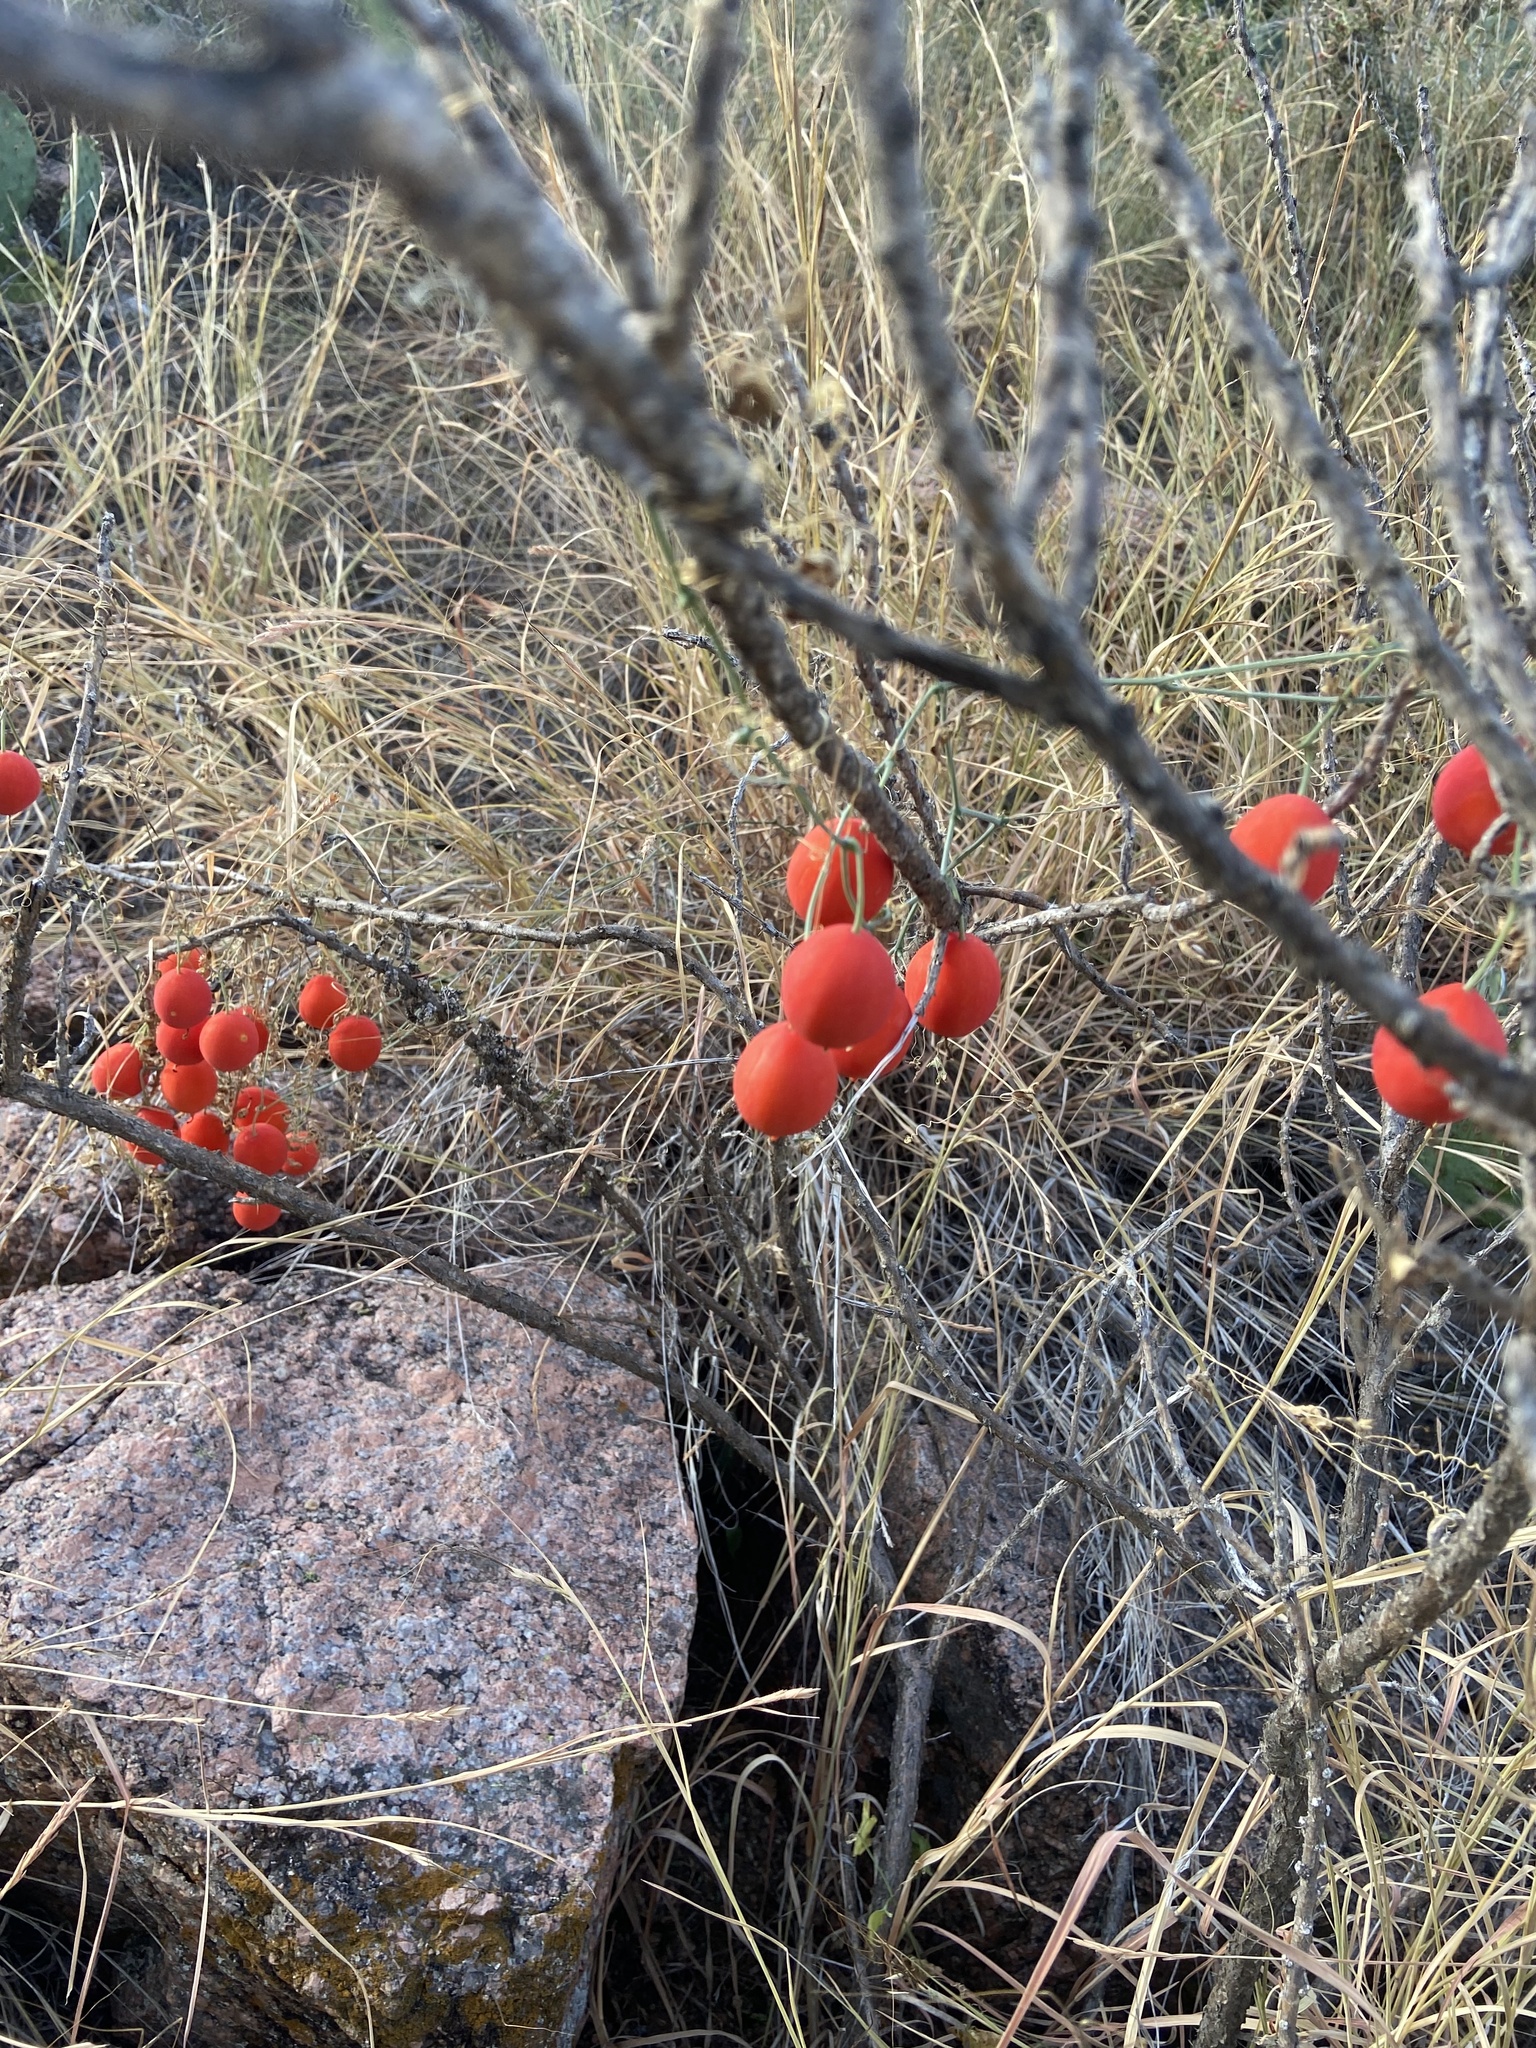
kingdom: Plantae
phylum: Tracheophyta
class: Magnoliopsida
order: Cucurbitales
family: Cucurbitaceae
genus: Ibervillea
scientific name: Ibervillea lindheimeri
